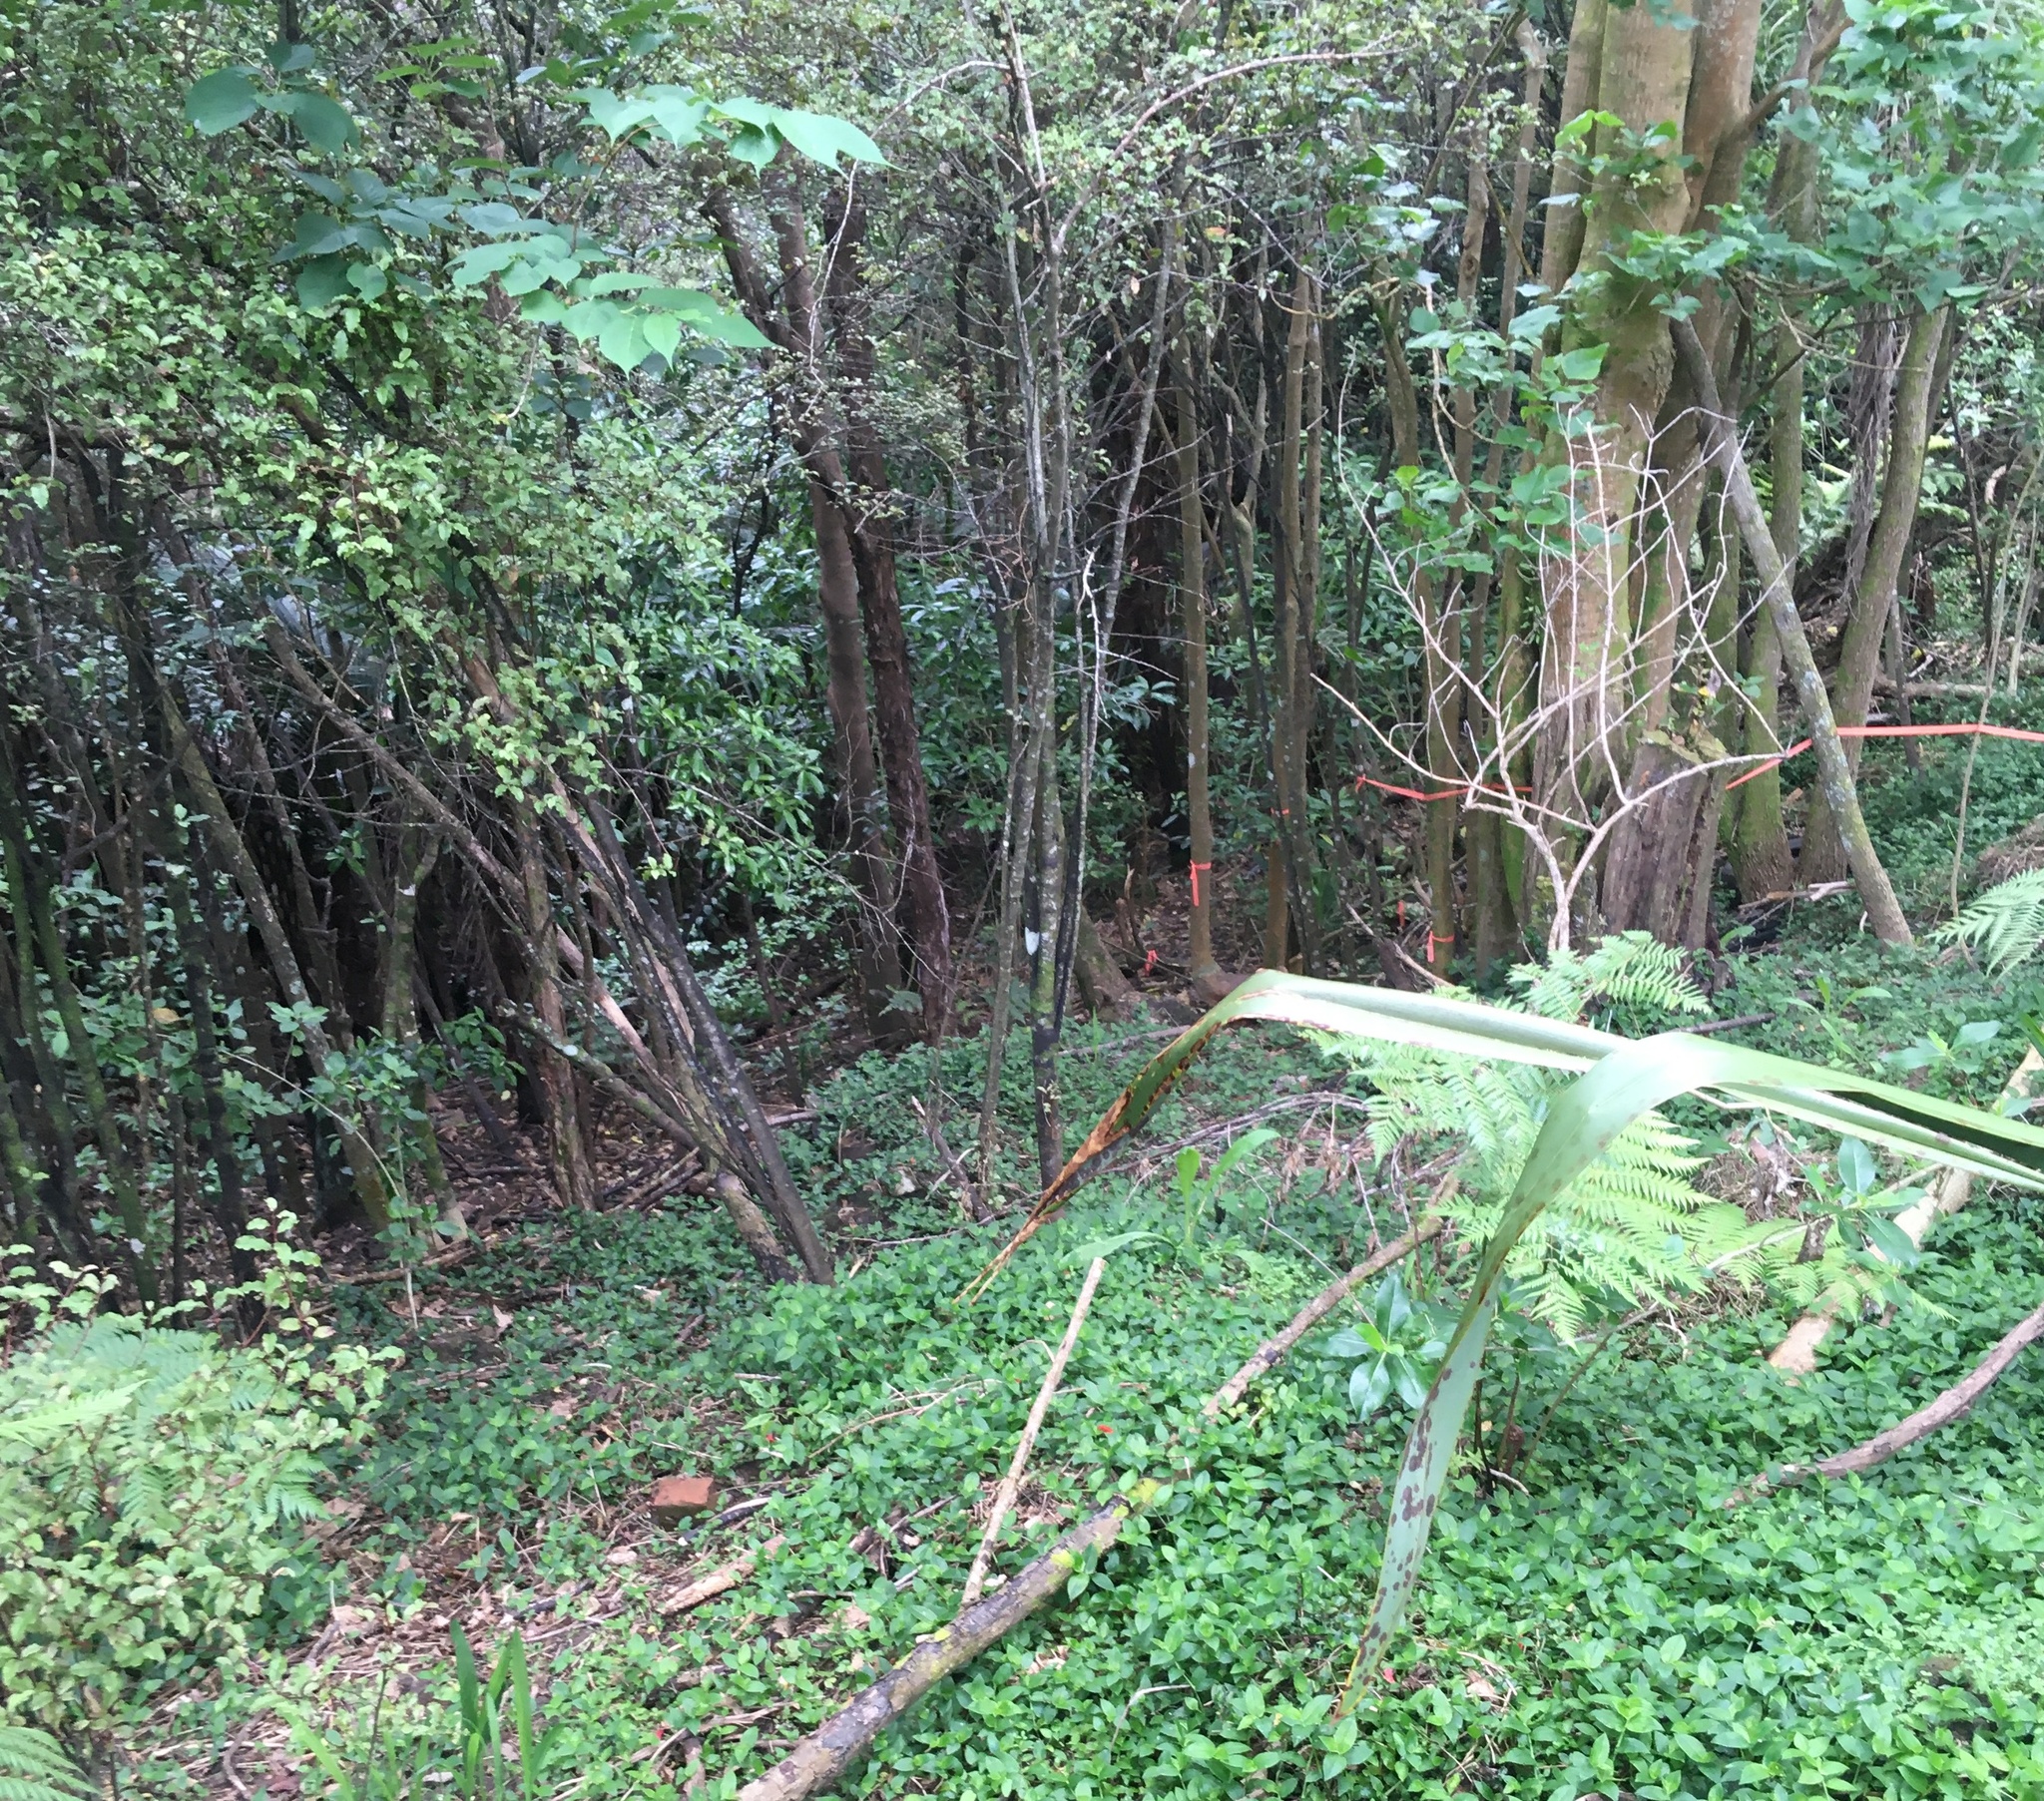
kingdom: Plantae
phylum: Tracheophyta
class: Magnoliopsida
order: Ericales
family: Primulaceae
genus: Myrsine
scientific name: Myrsine australis
